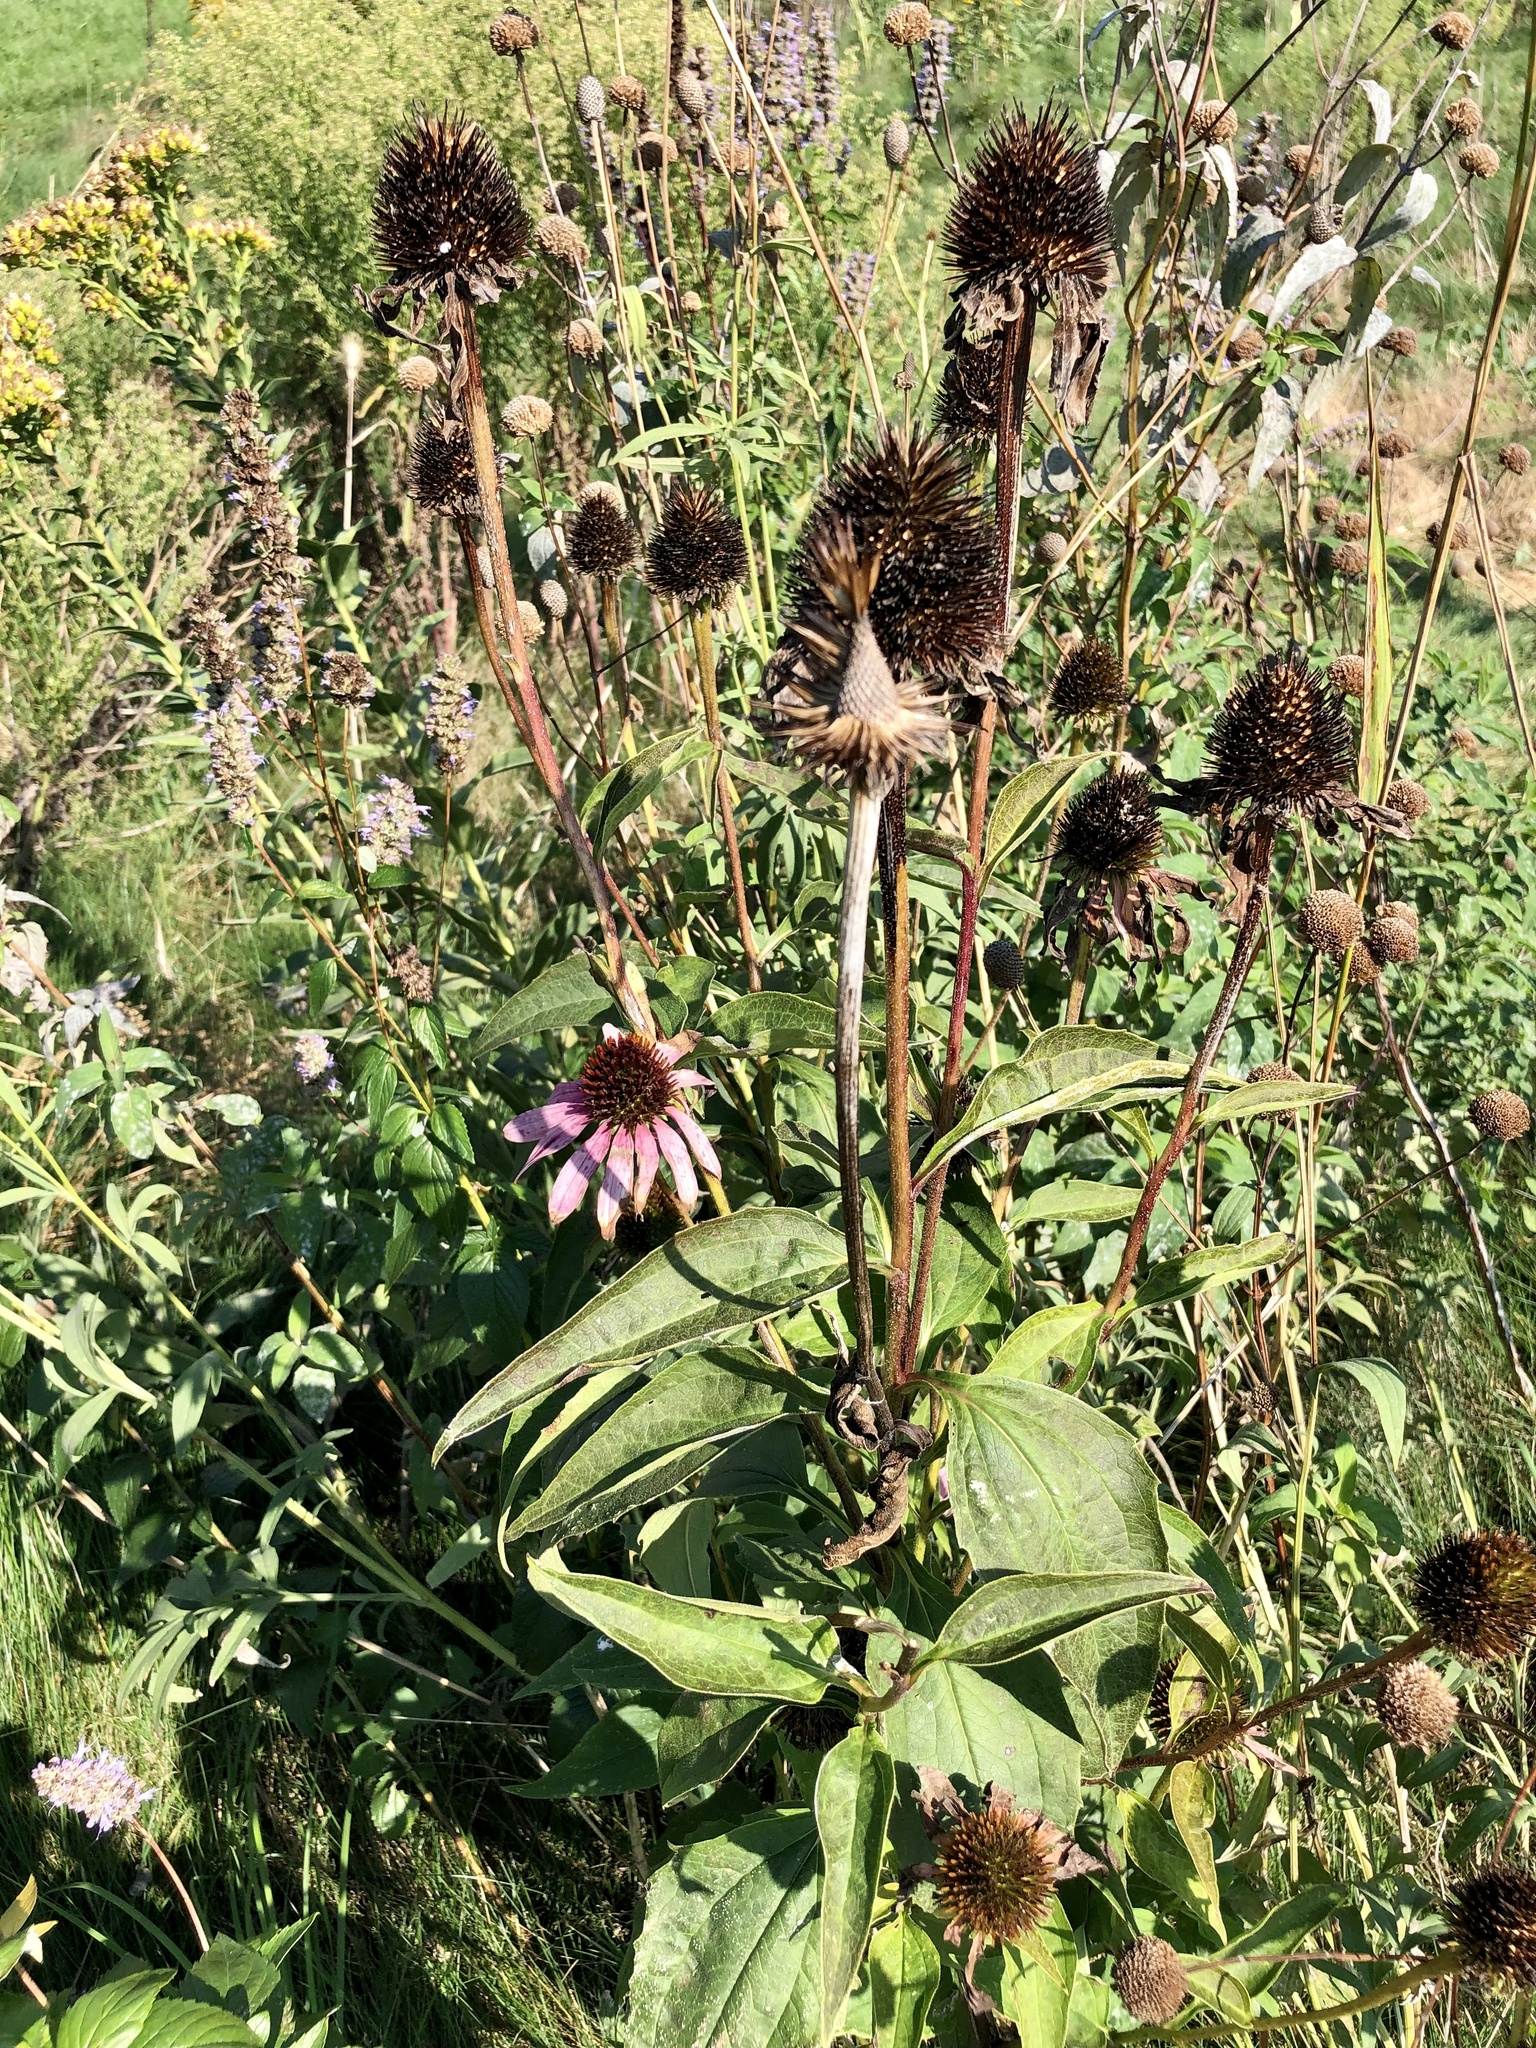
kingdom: Plantae
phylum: Tracheophyta
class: Magnoliopsida
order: Asterales
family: Asteraceae
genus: Echinacea
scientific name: Echinacea purpurea
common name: Broad-leaved purple coneflower
